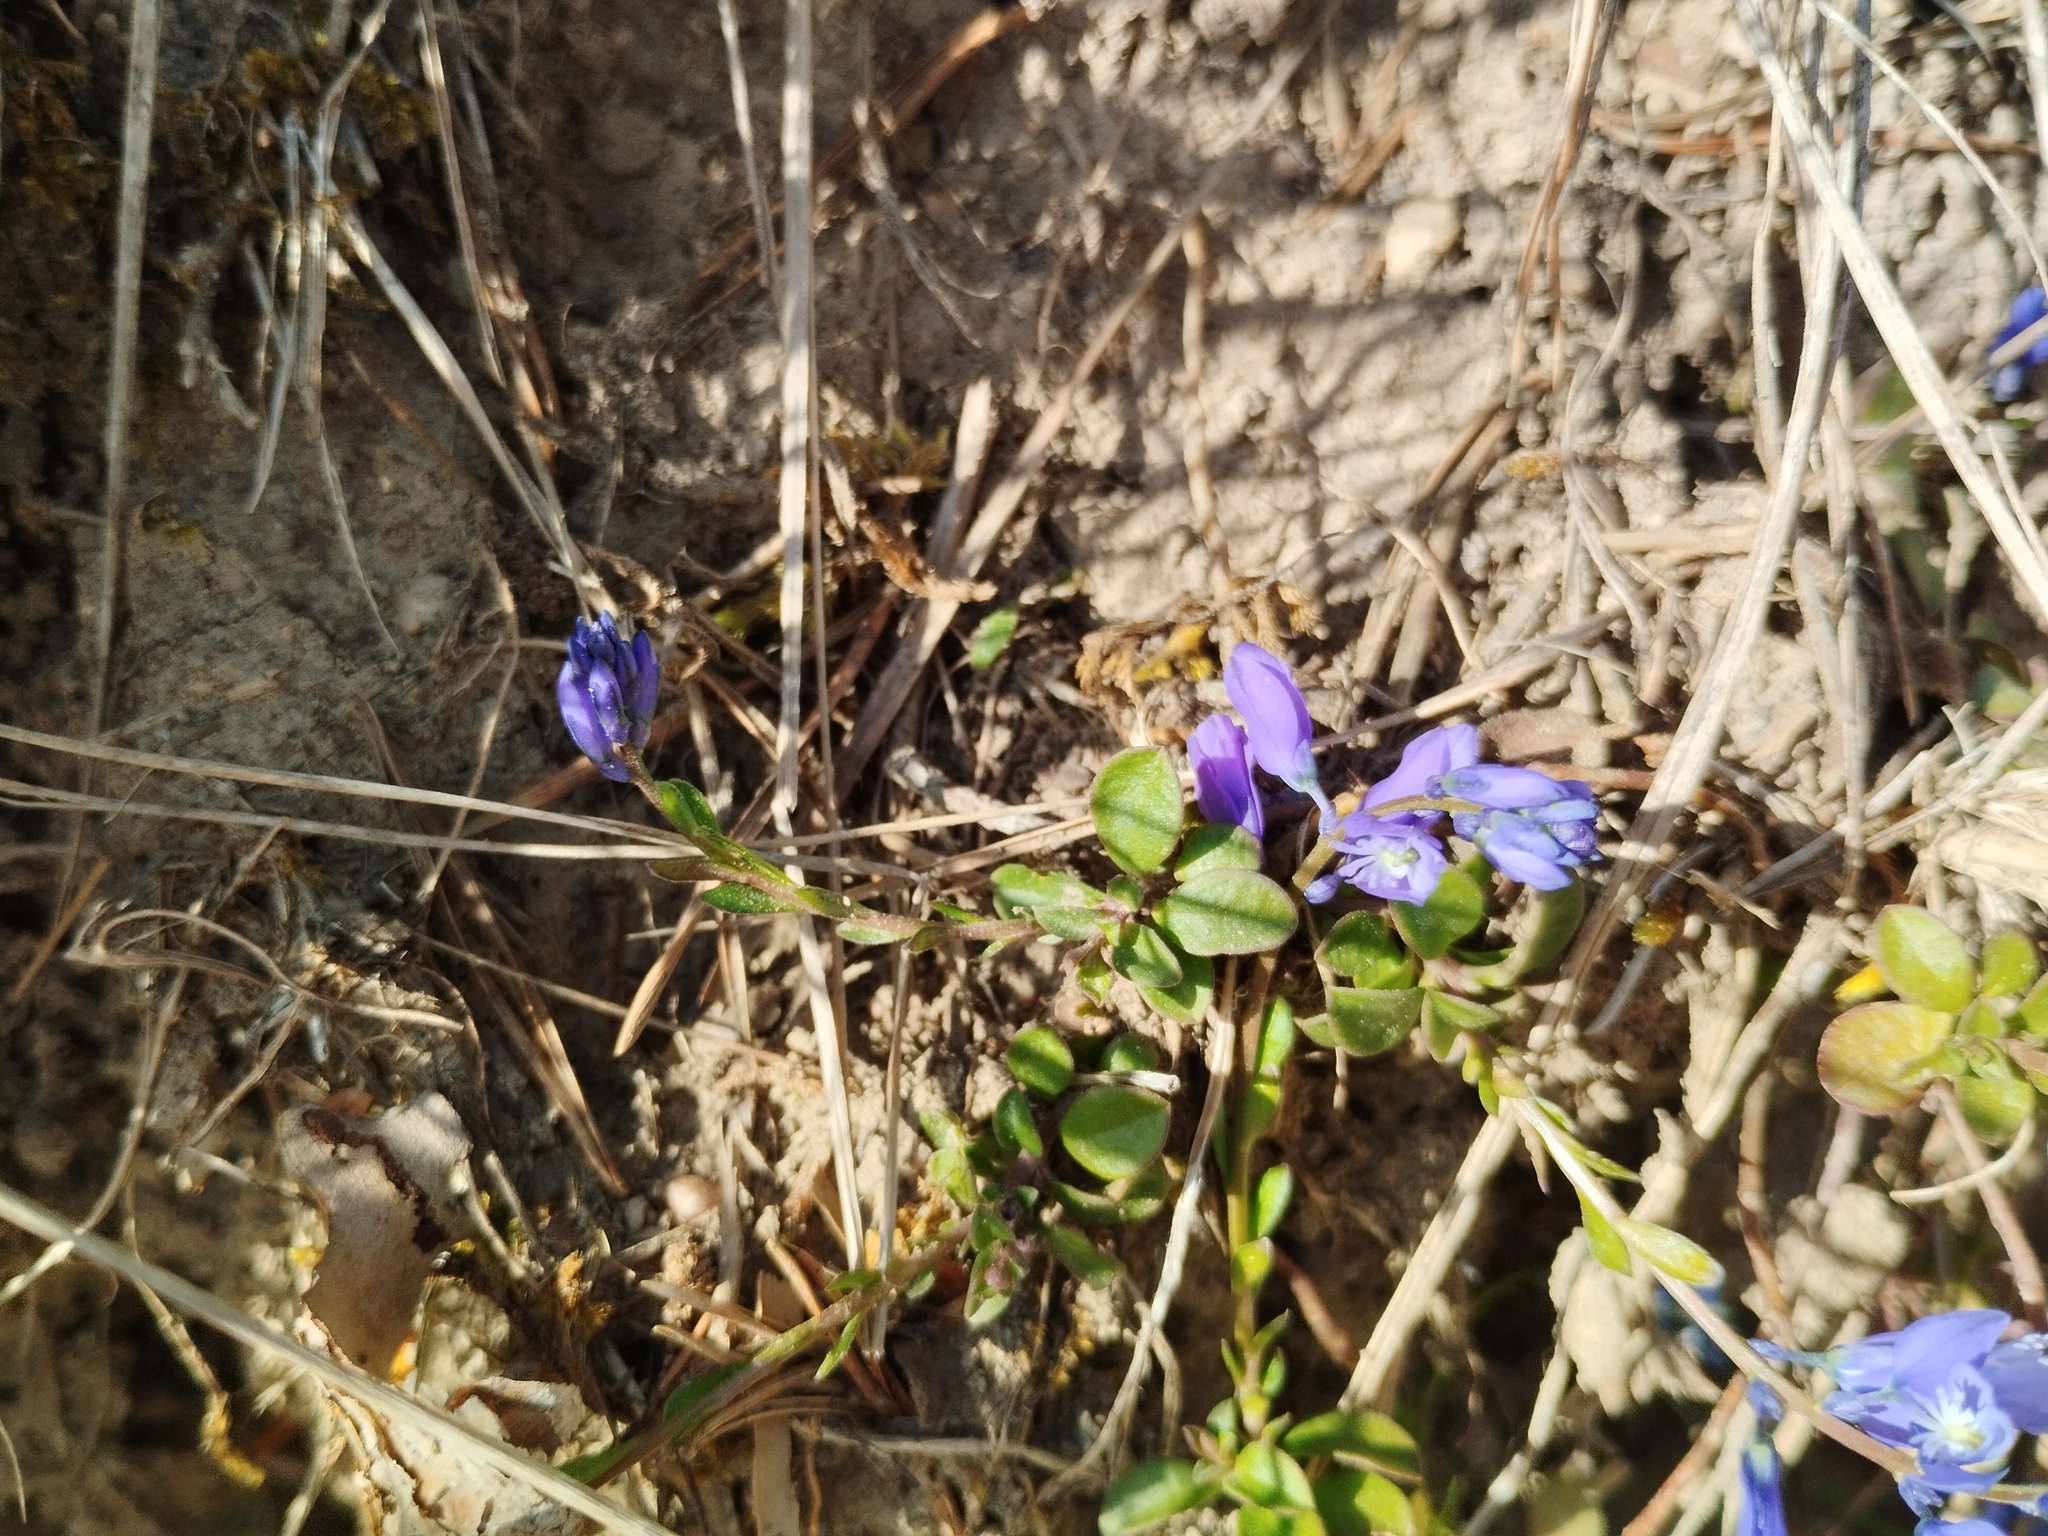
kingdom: Plantae
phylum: Tracheophyta
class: Magnoliopsida
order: Fabales
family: Polygalaceae
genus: Polygala
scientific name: Polygala calcarea
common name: Chalk milkwort
